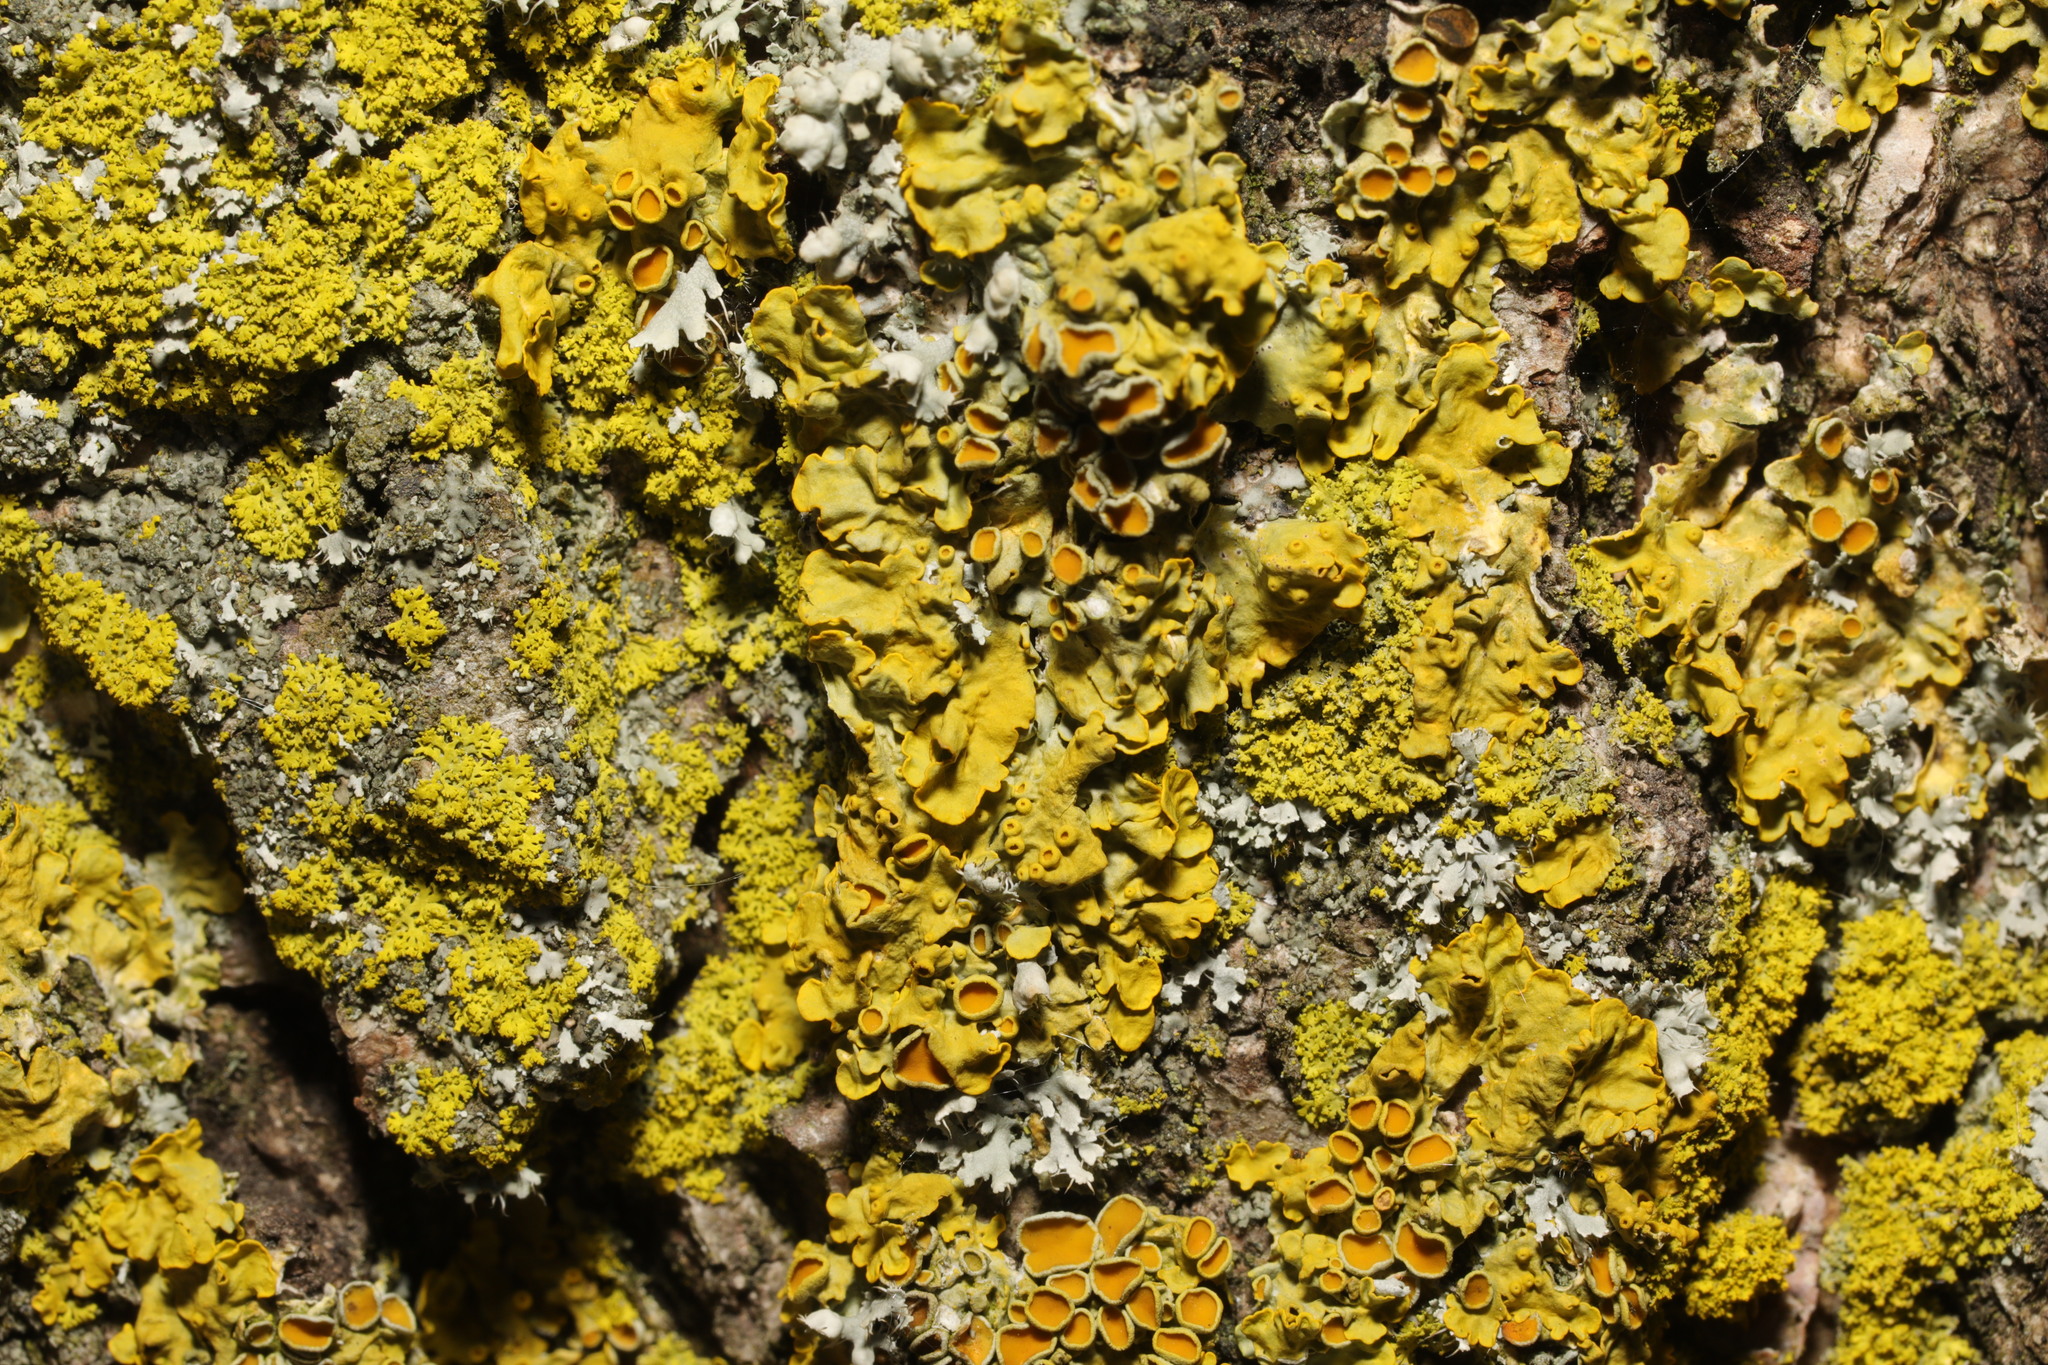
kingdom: Fungi
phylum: Ascomycota
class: Lecanoromycetes
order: Teloschistales
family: Teloschistaceae
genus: Xanthoria
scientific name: Xanthoria parietina
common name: Common orange lichen
